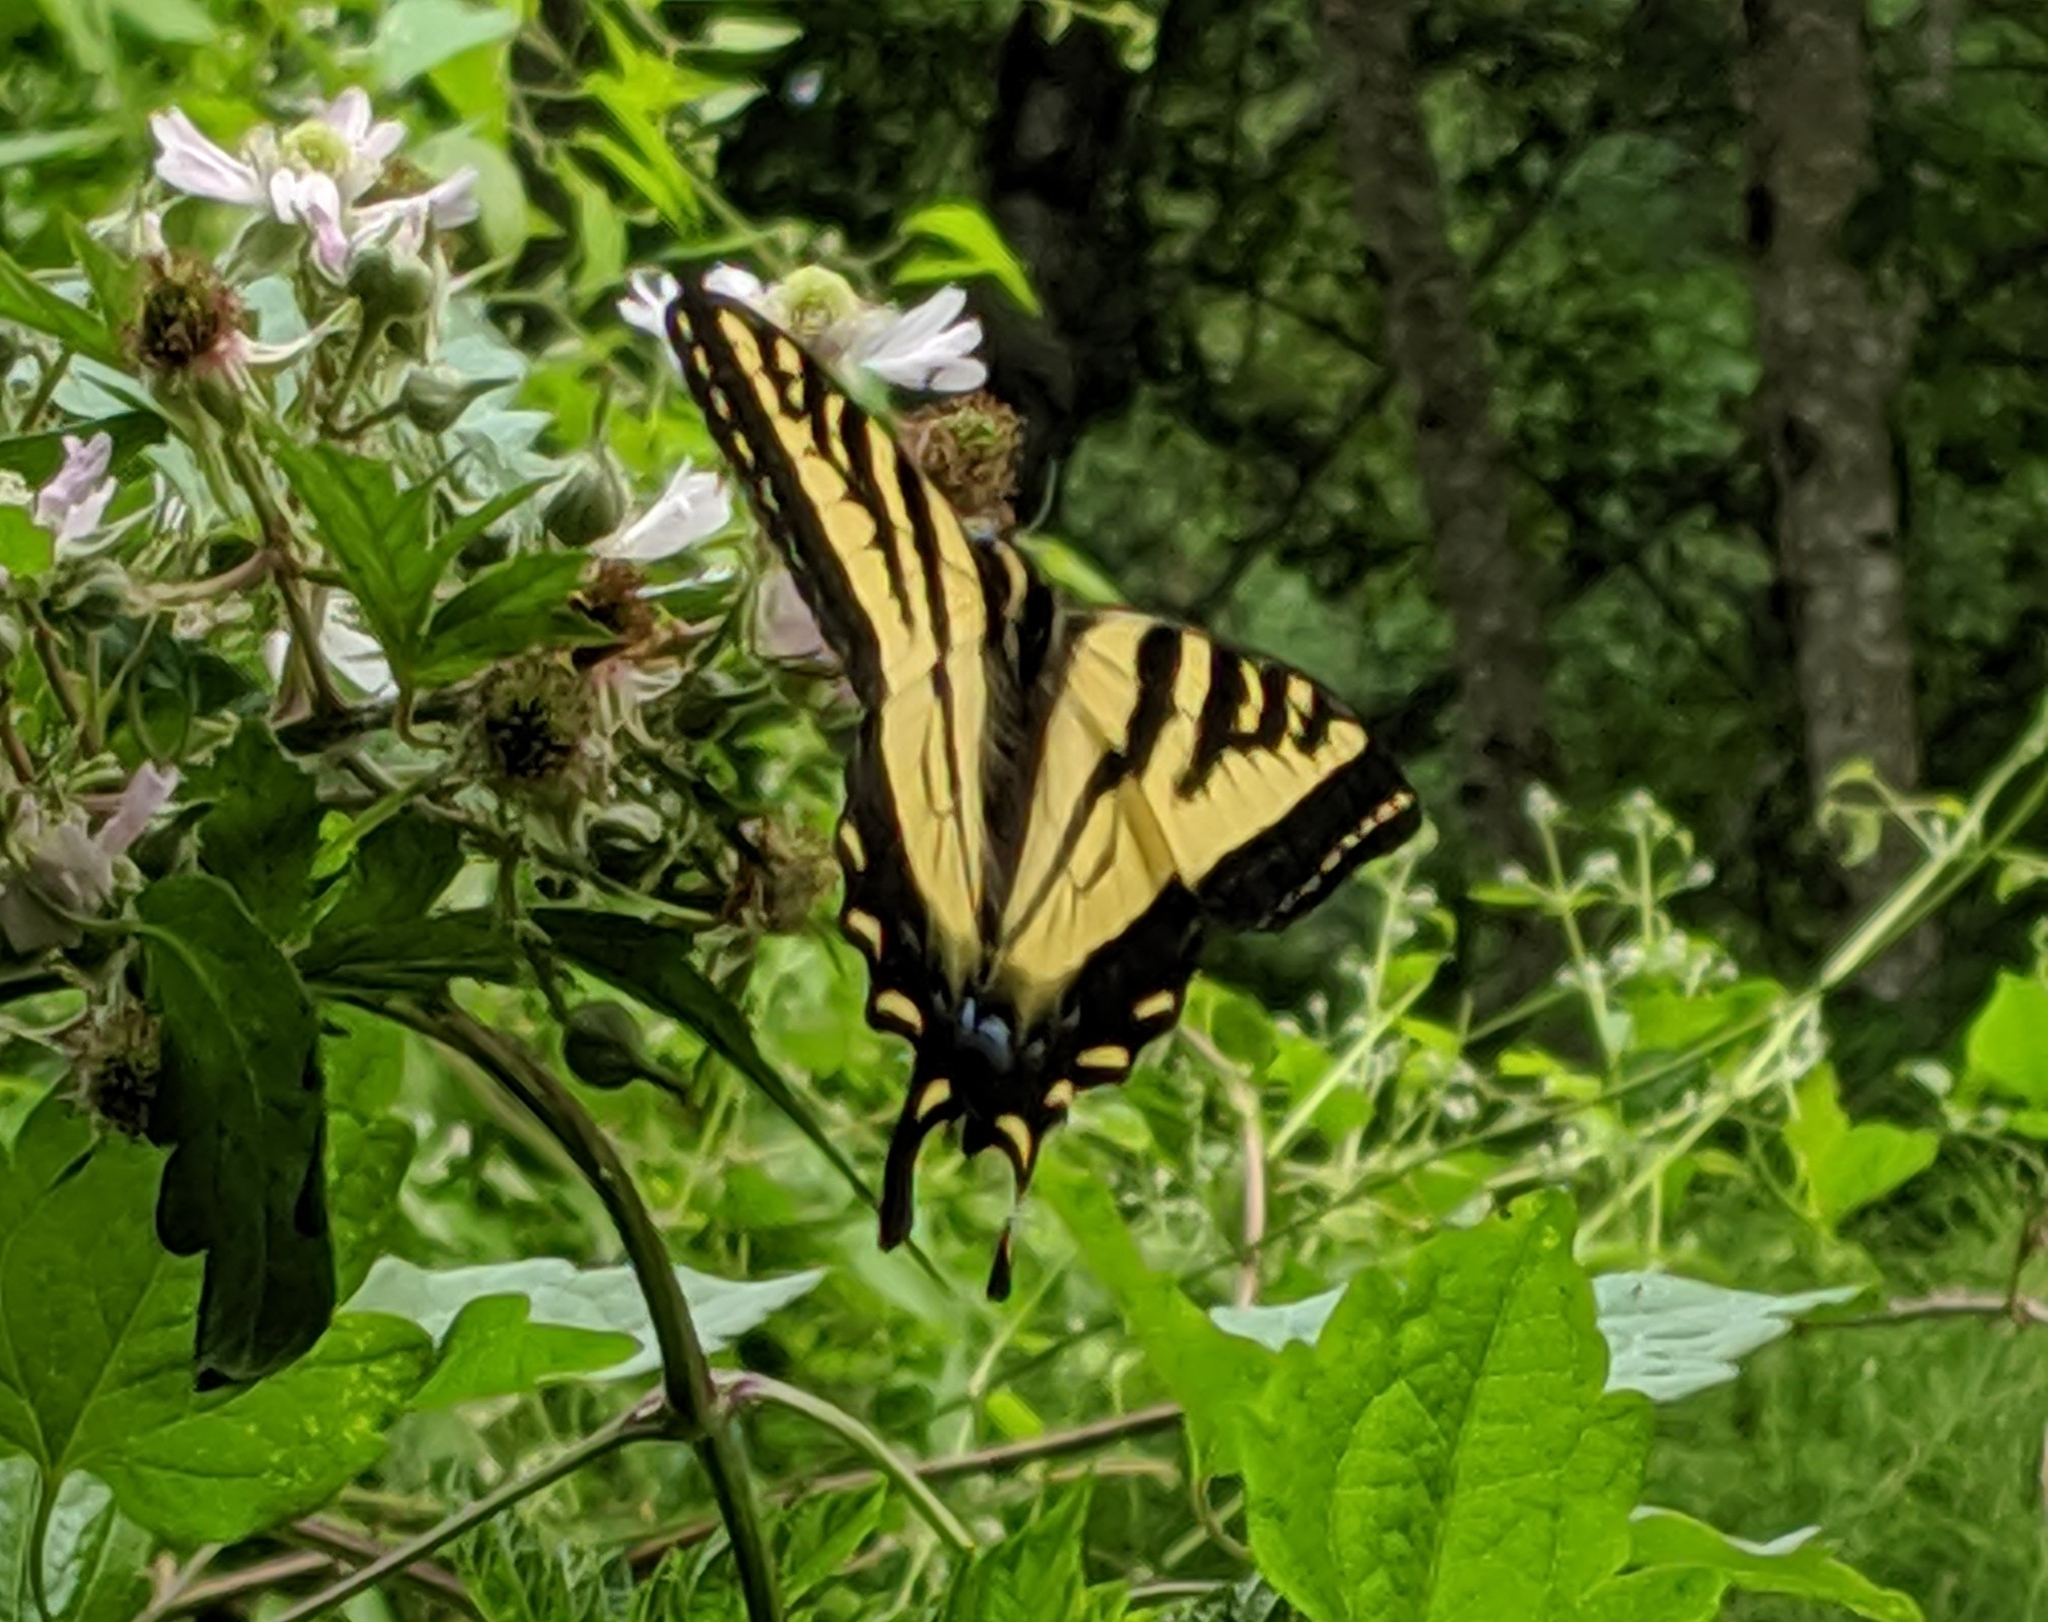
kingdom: Animalia
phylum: Arthropoda
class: Insecta
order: Lepidoptera
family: Papilionidae
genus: Papilio
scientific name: Papilio rutulus
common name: Western tiger swallowtail
